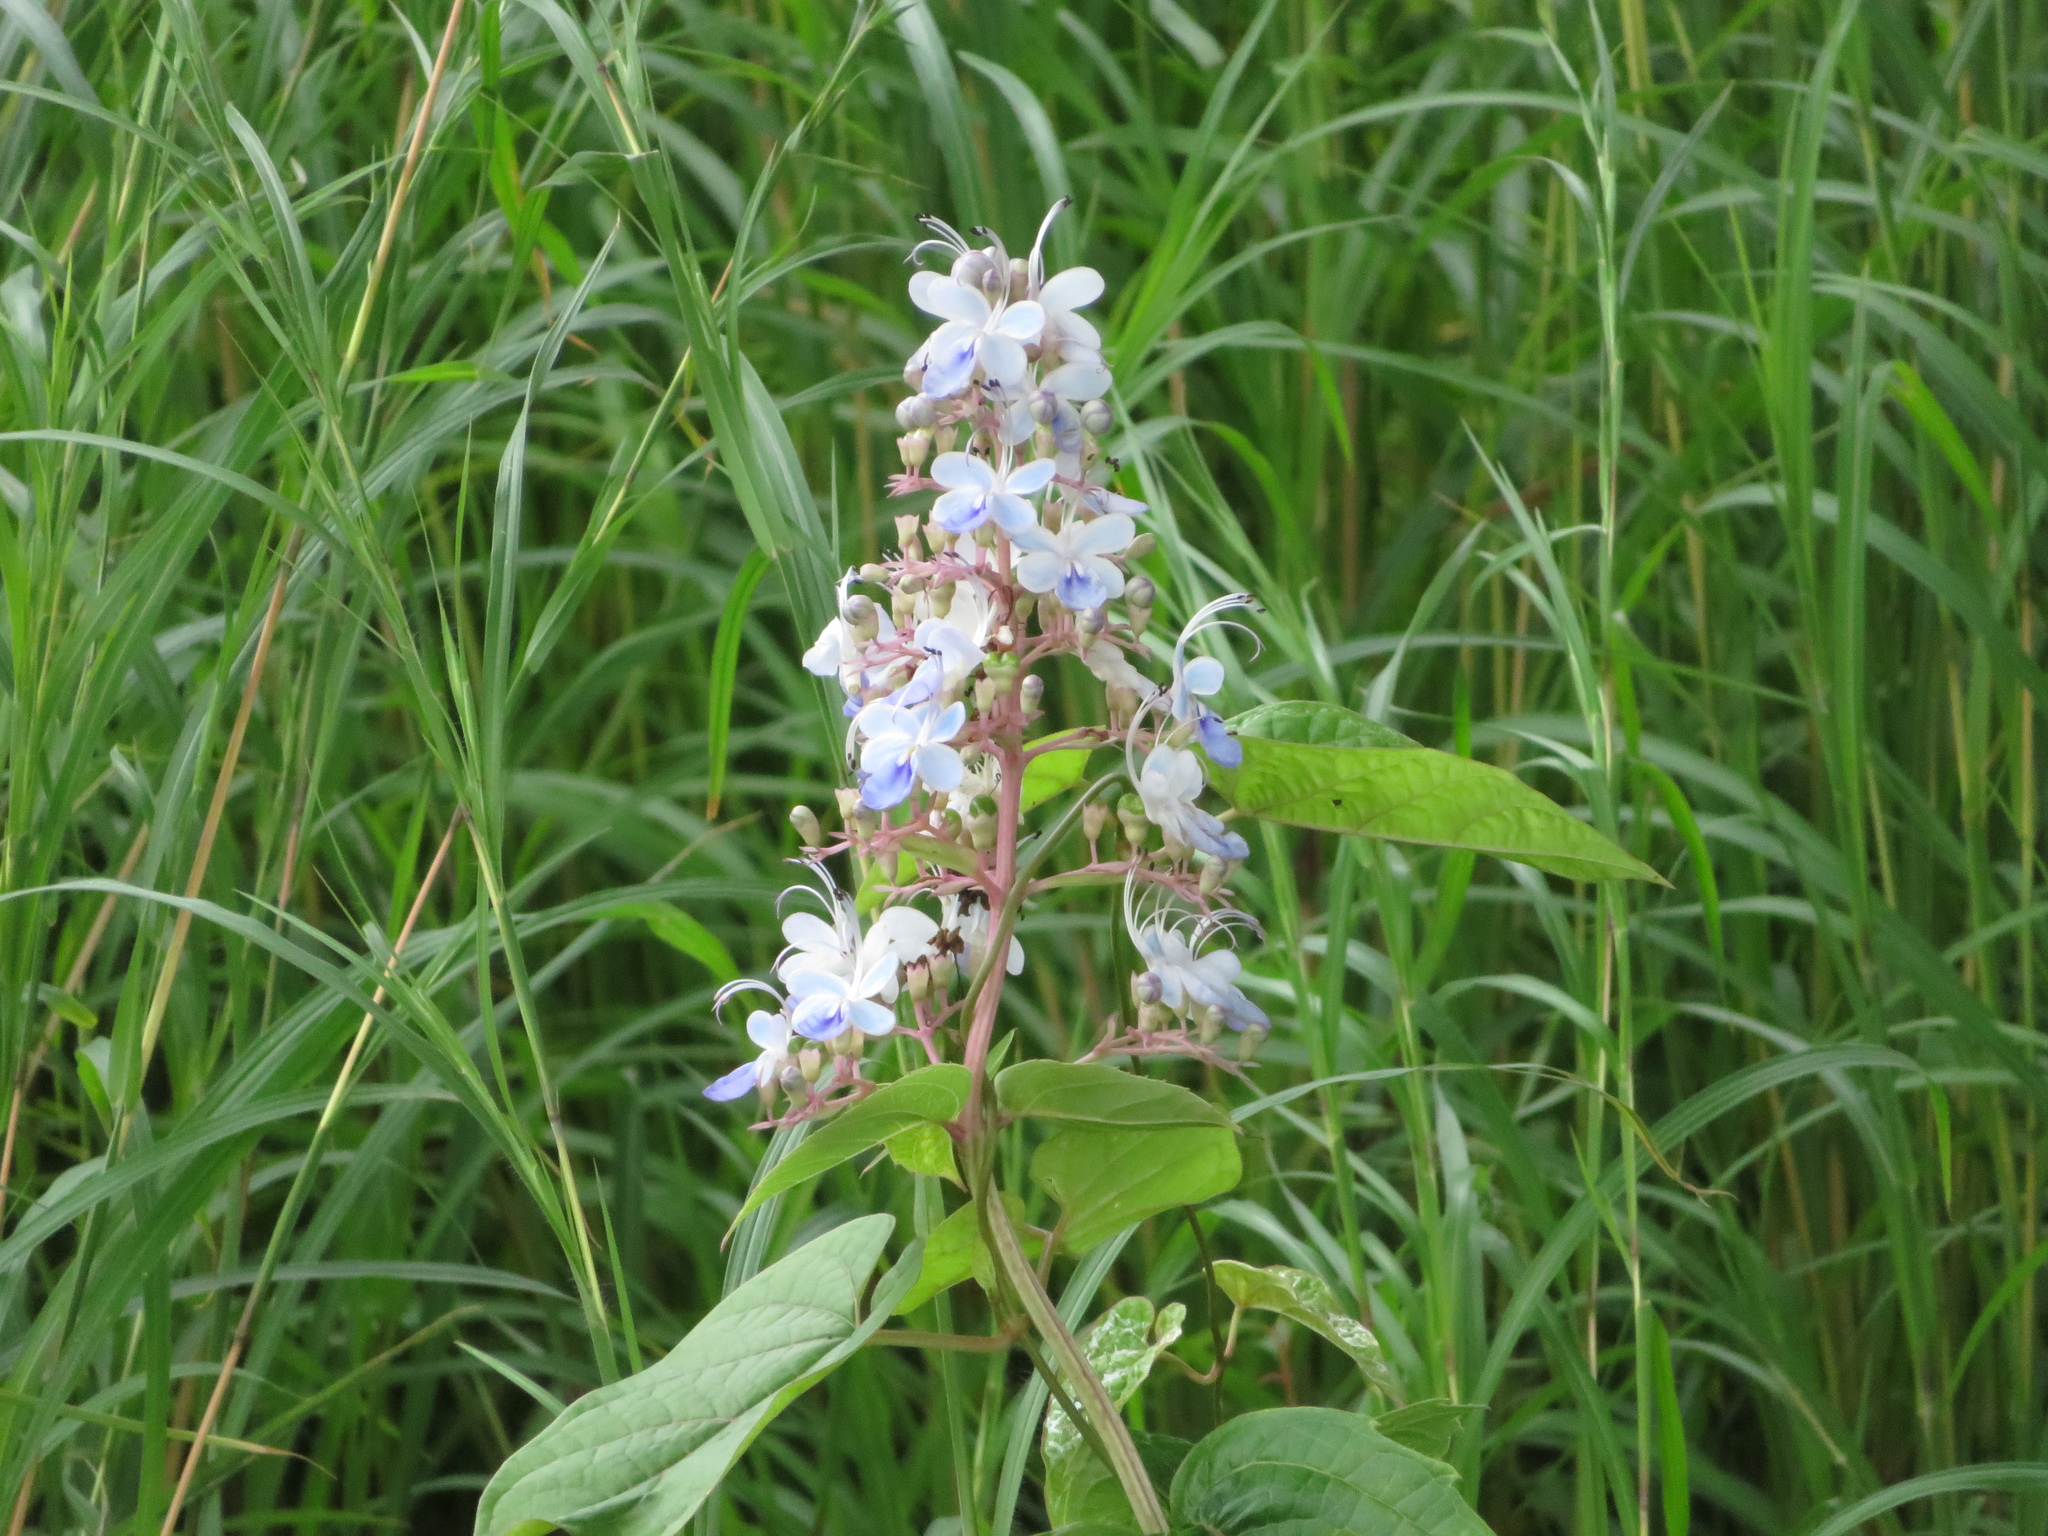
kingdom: Plantae
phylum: Tracheophyta
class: Magnoliopsida
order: Lamiales
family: Lamiaceae
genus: Rotheca
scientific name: Rotheca serrata
